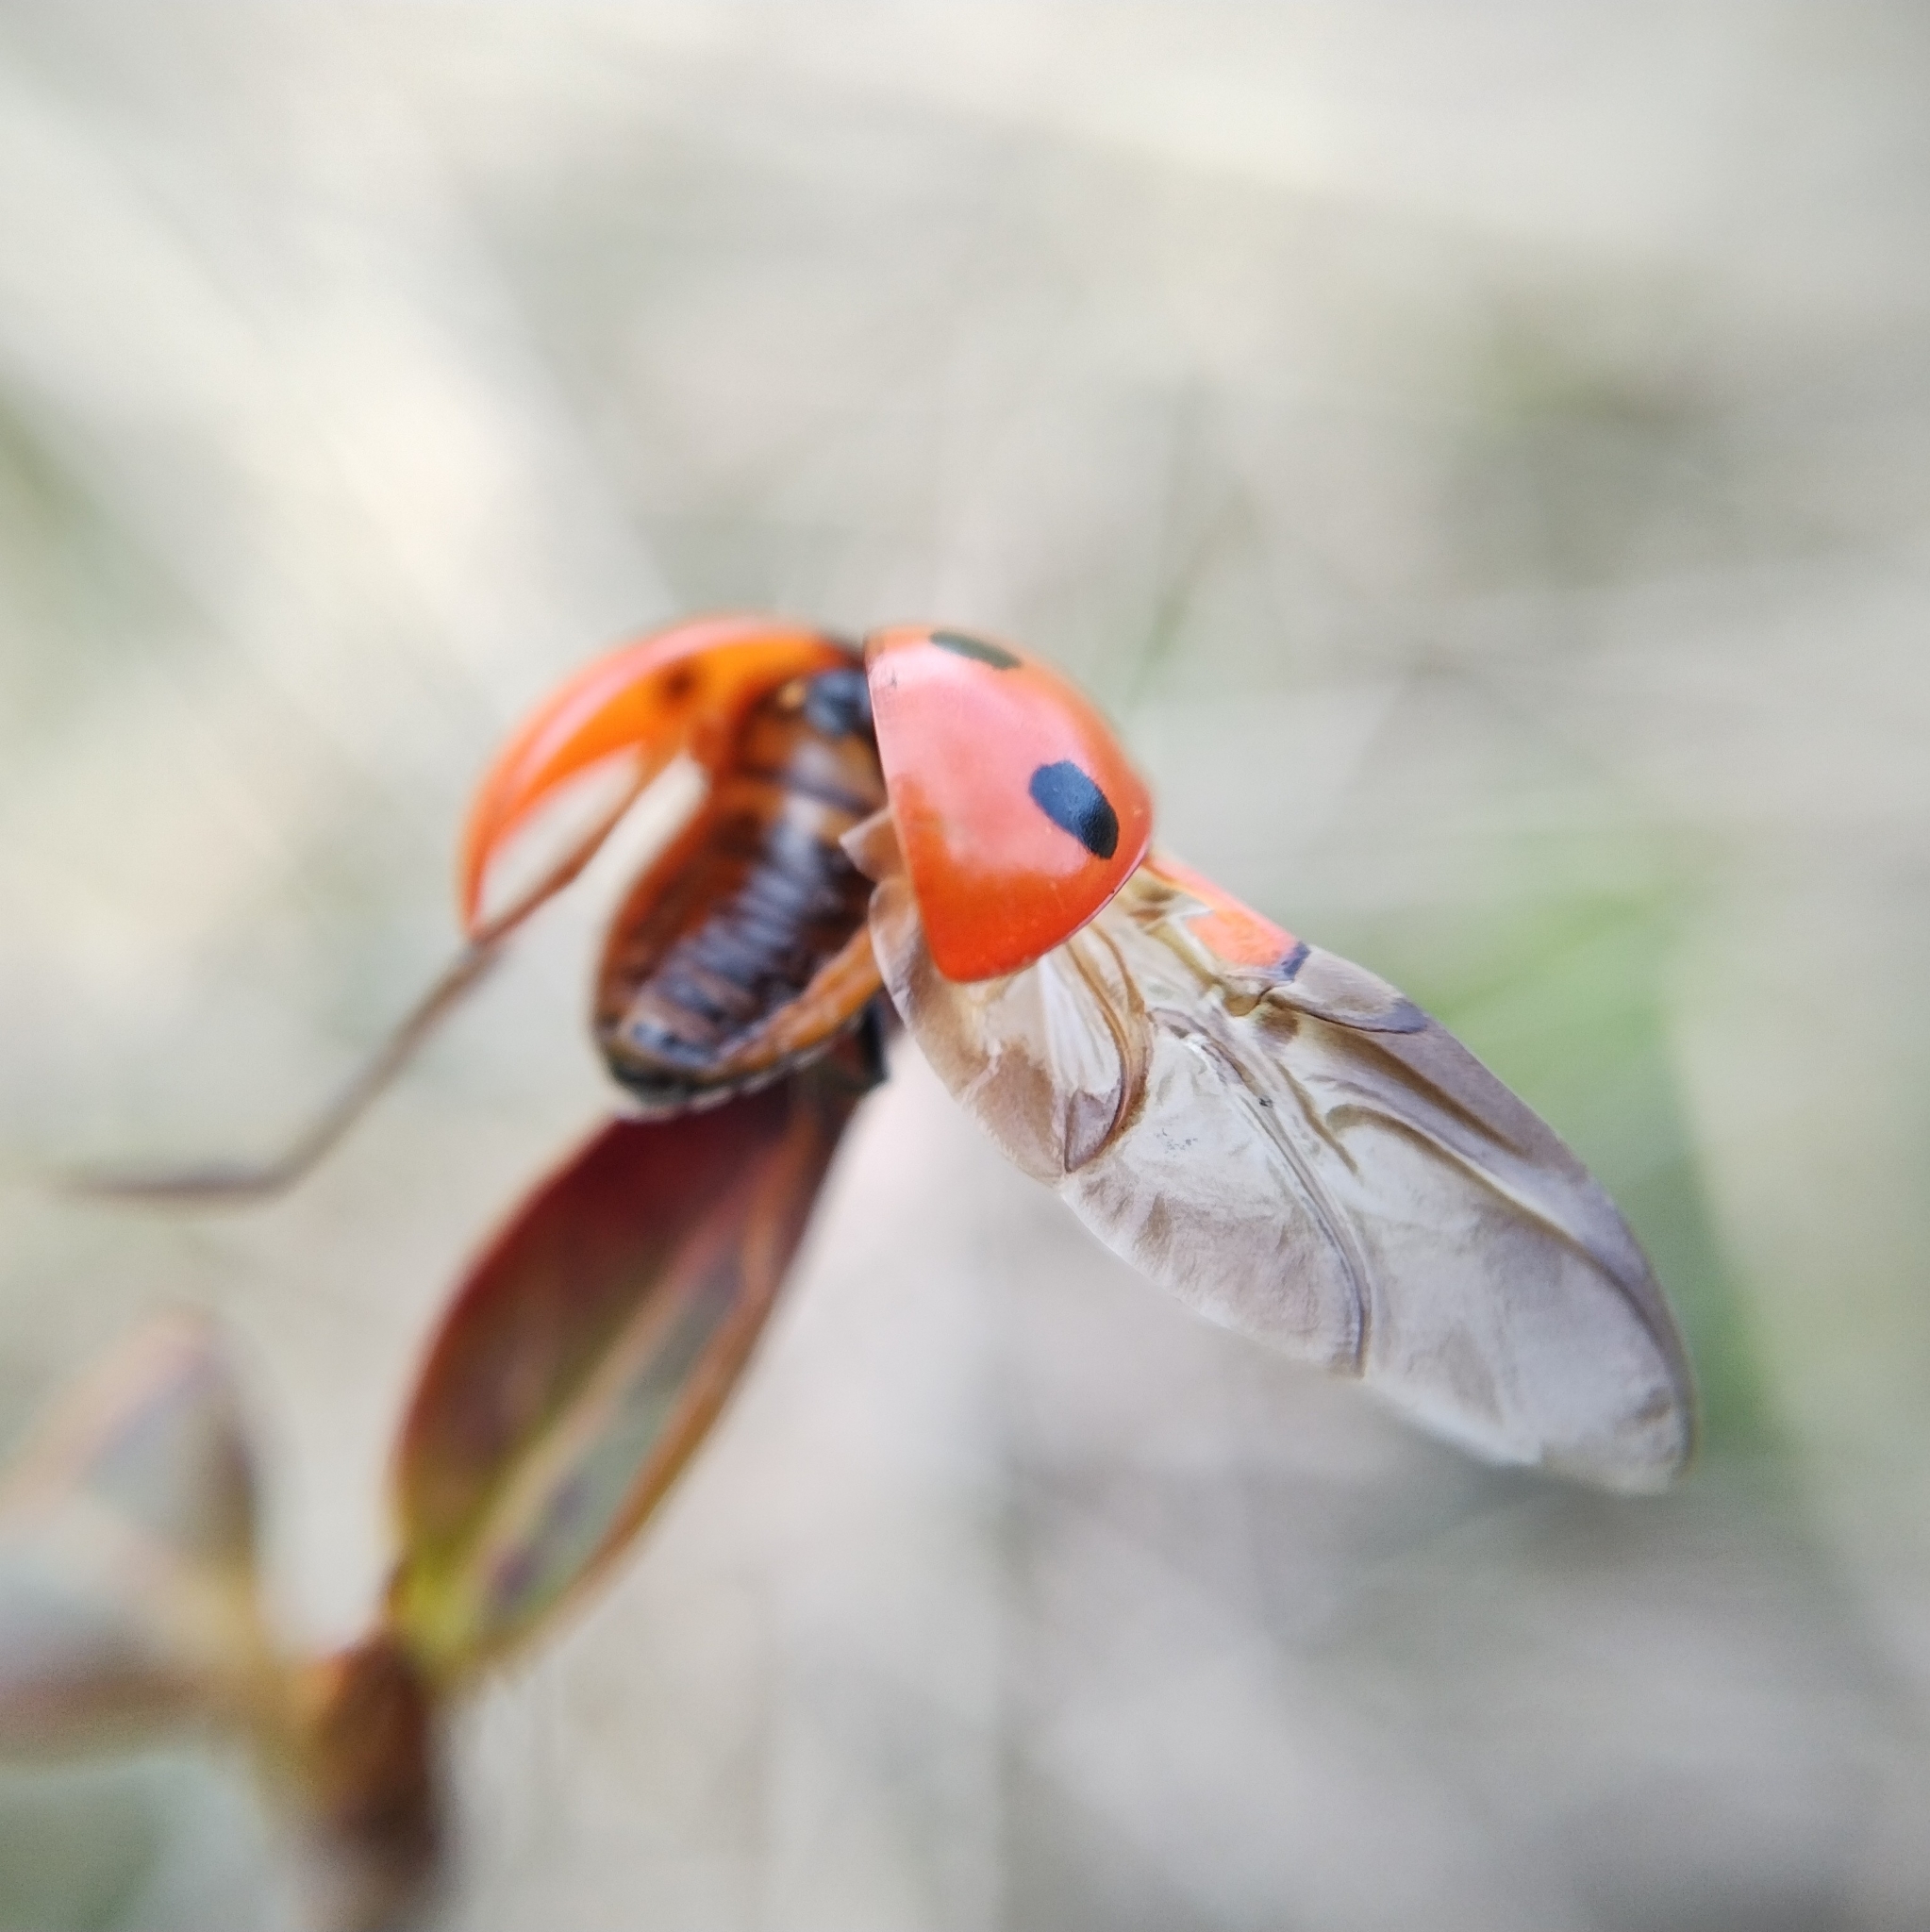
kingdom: Animalia
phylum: Arthropoda
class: Insecta
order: Coleoptera
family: Coccinellidae
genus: Coccinella
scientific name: Coccinella septempunctata
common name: Sevenspotted lady beetle
